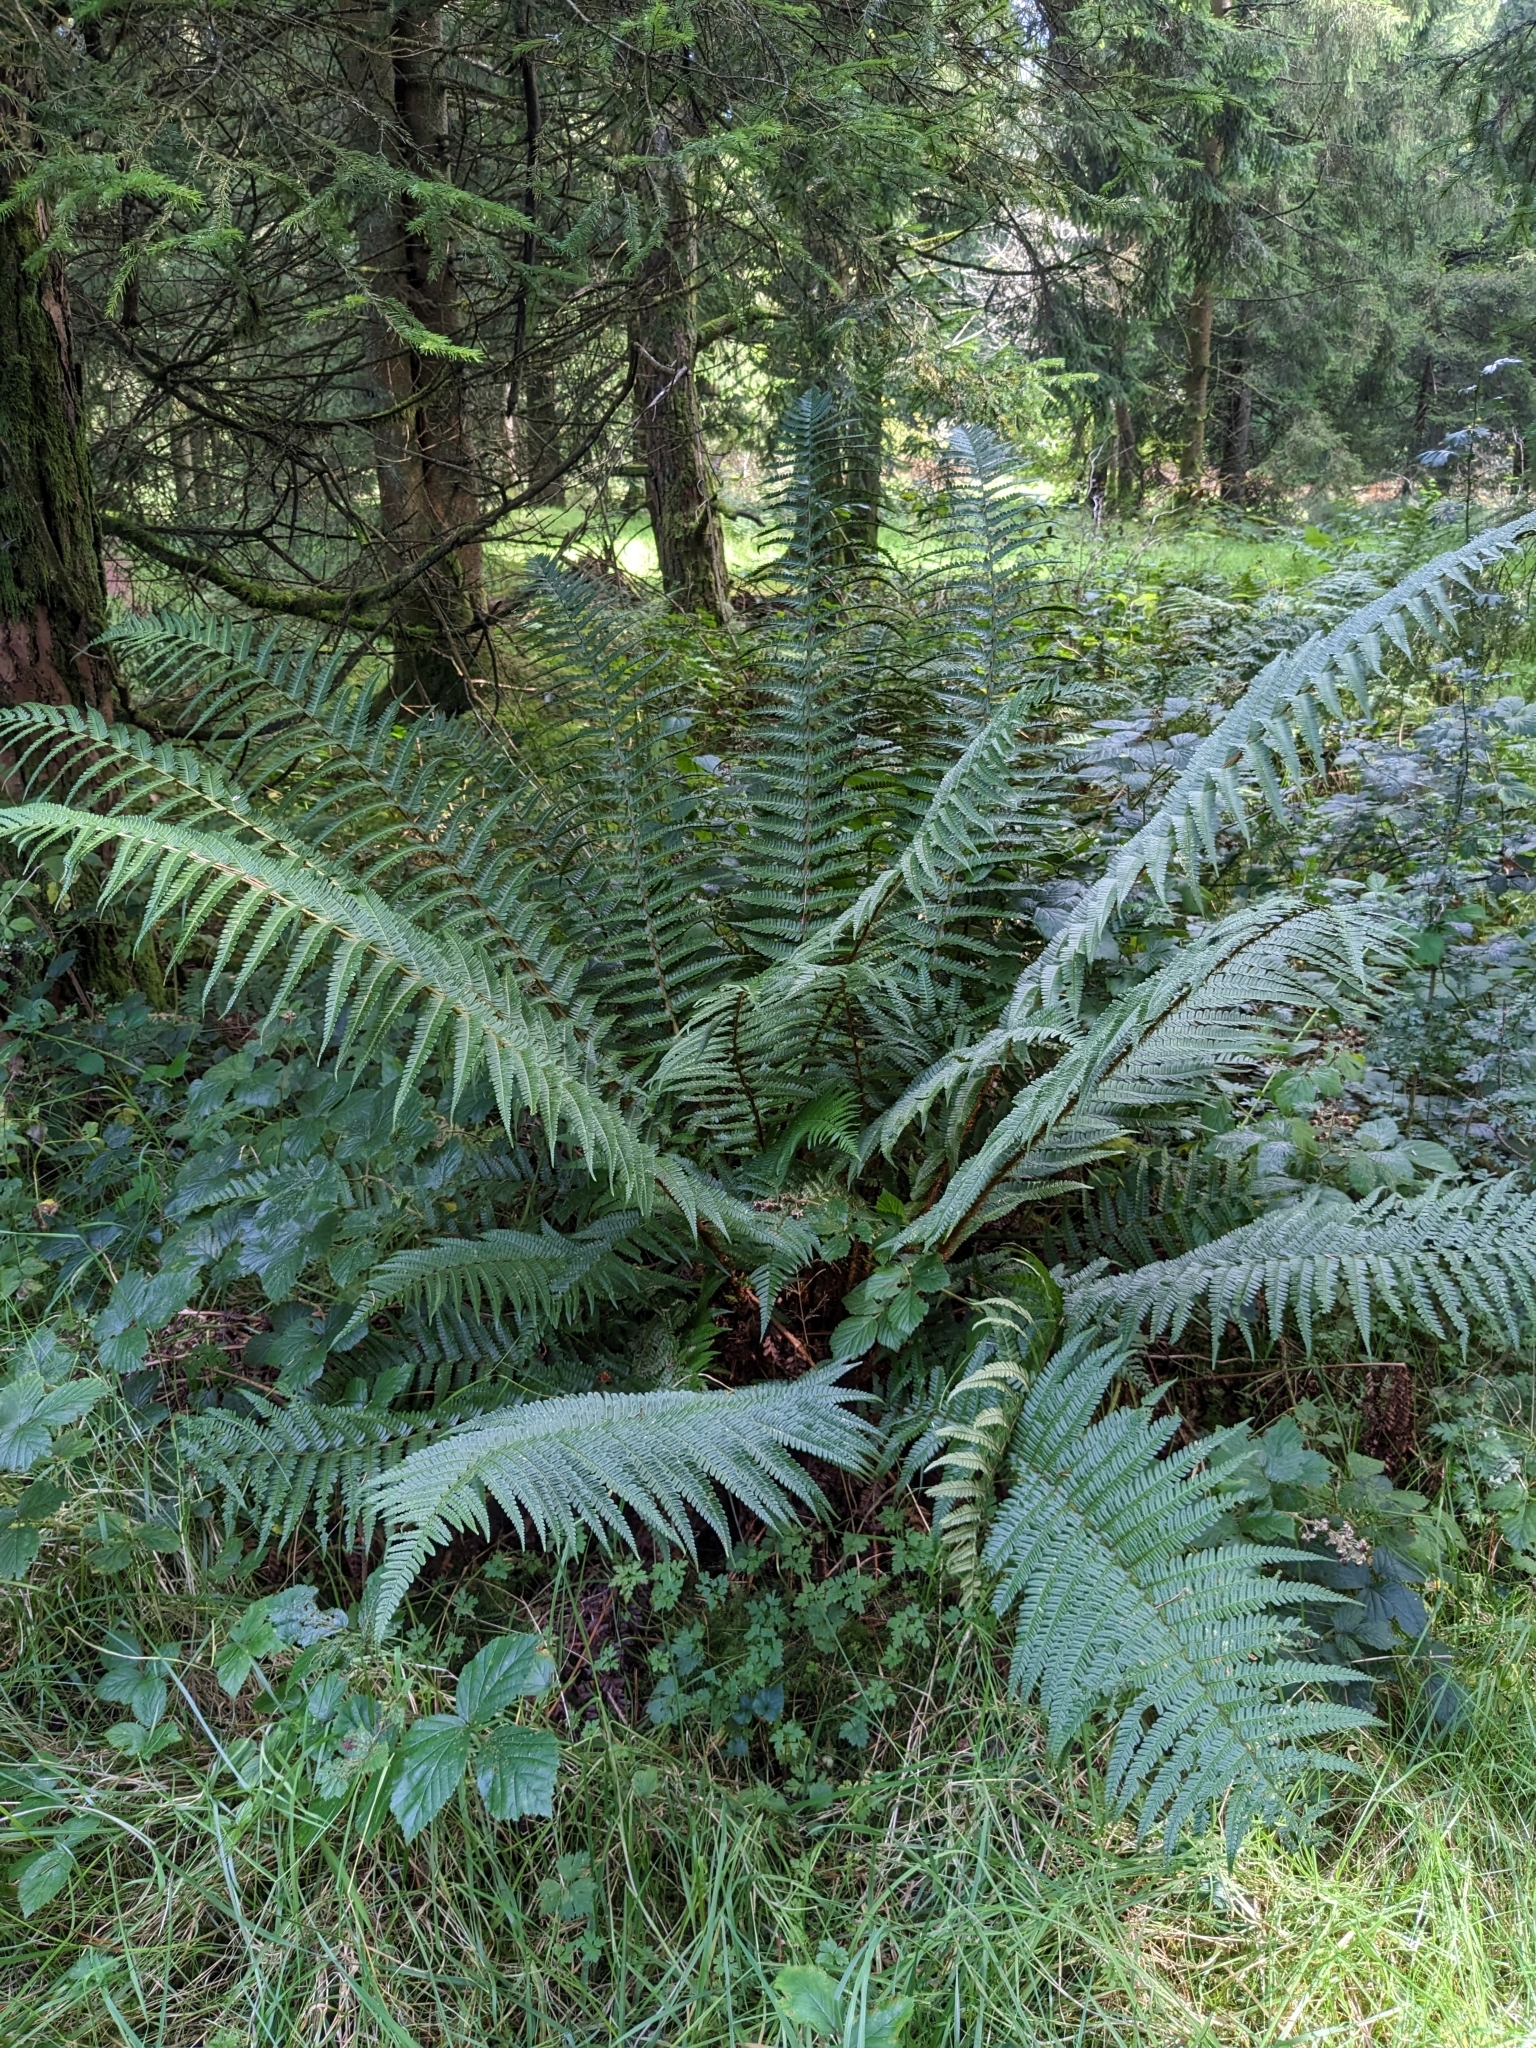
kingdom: Plantae
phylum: Tracheophyta
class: Polypodiopsida
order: Polypodiales
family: Dryopteridaceae
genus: Dryopteris
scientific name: Dryopteris borreri
